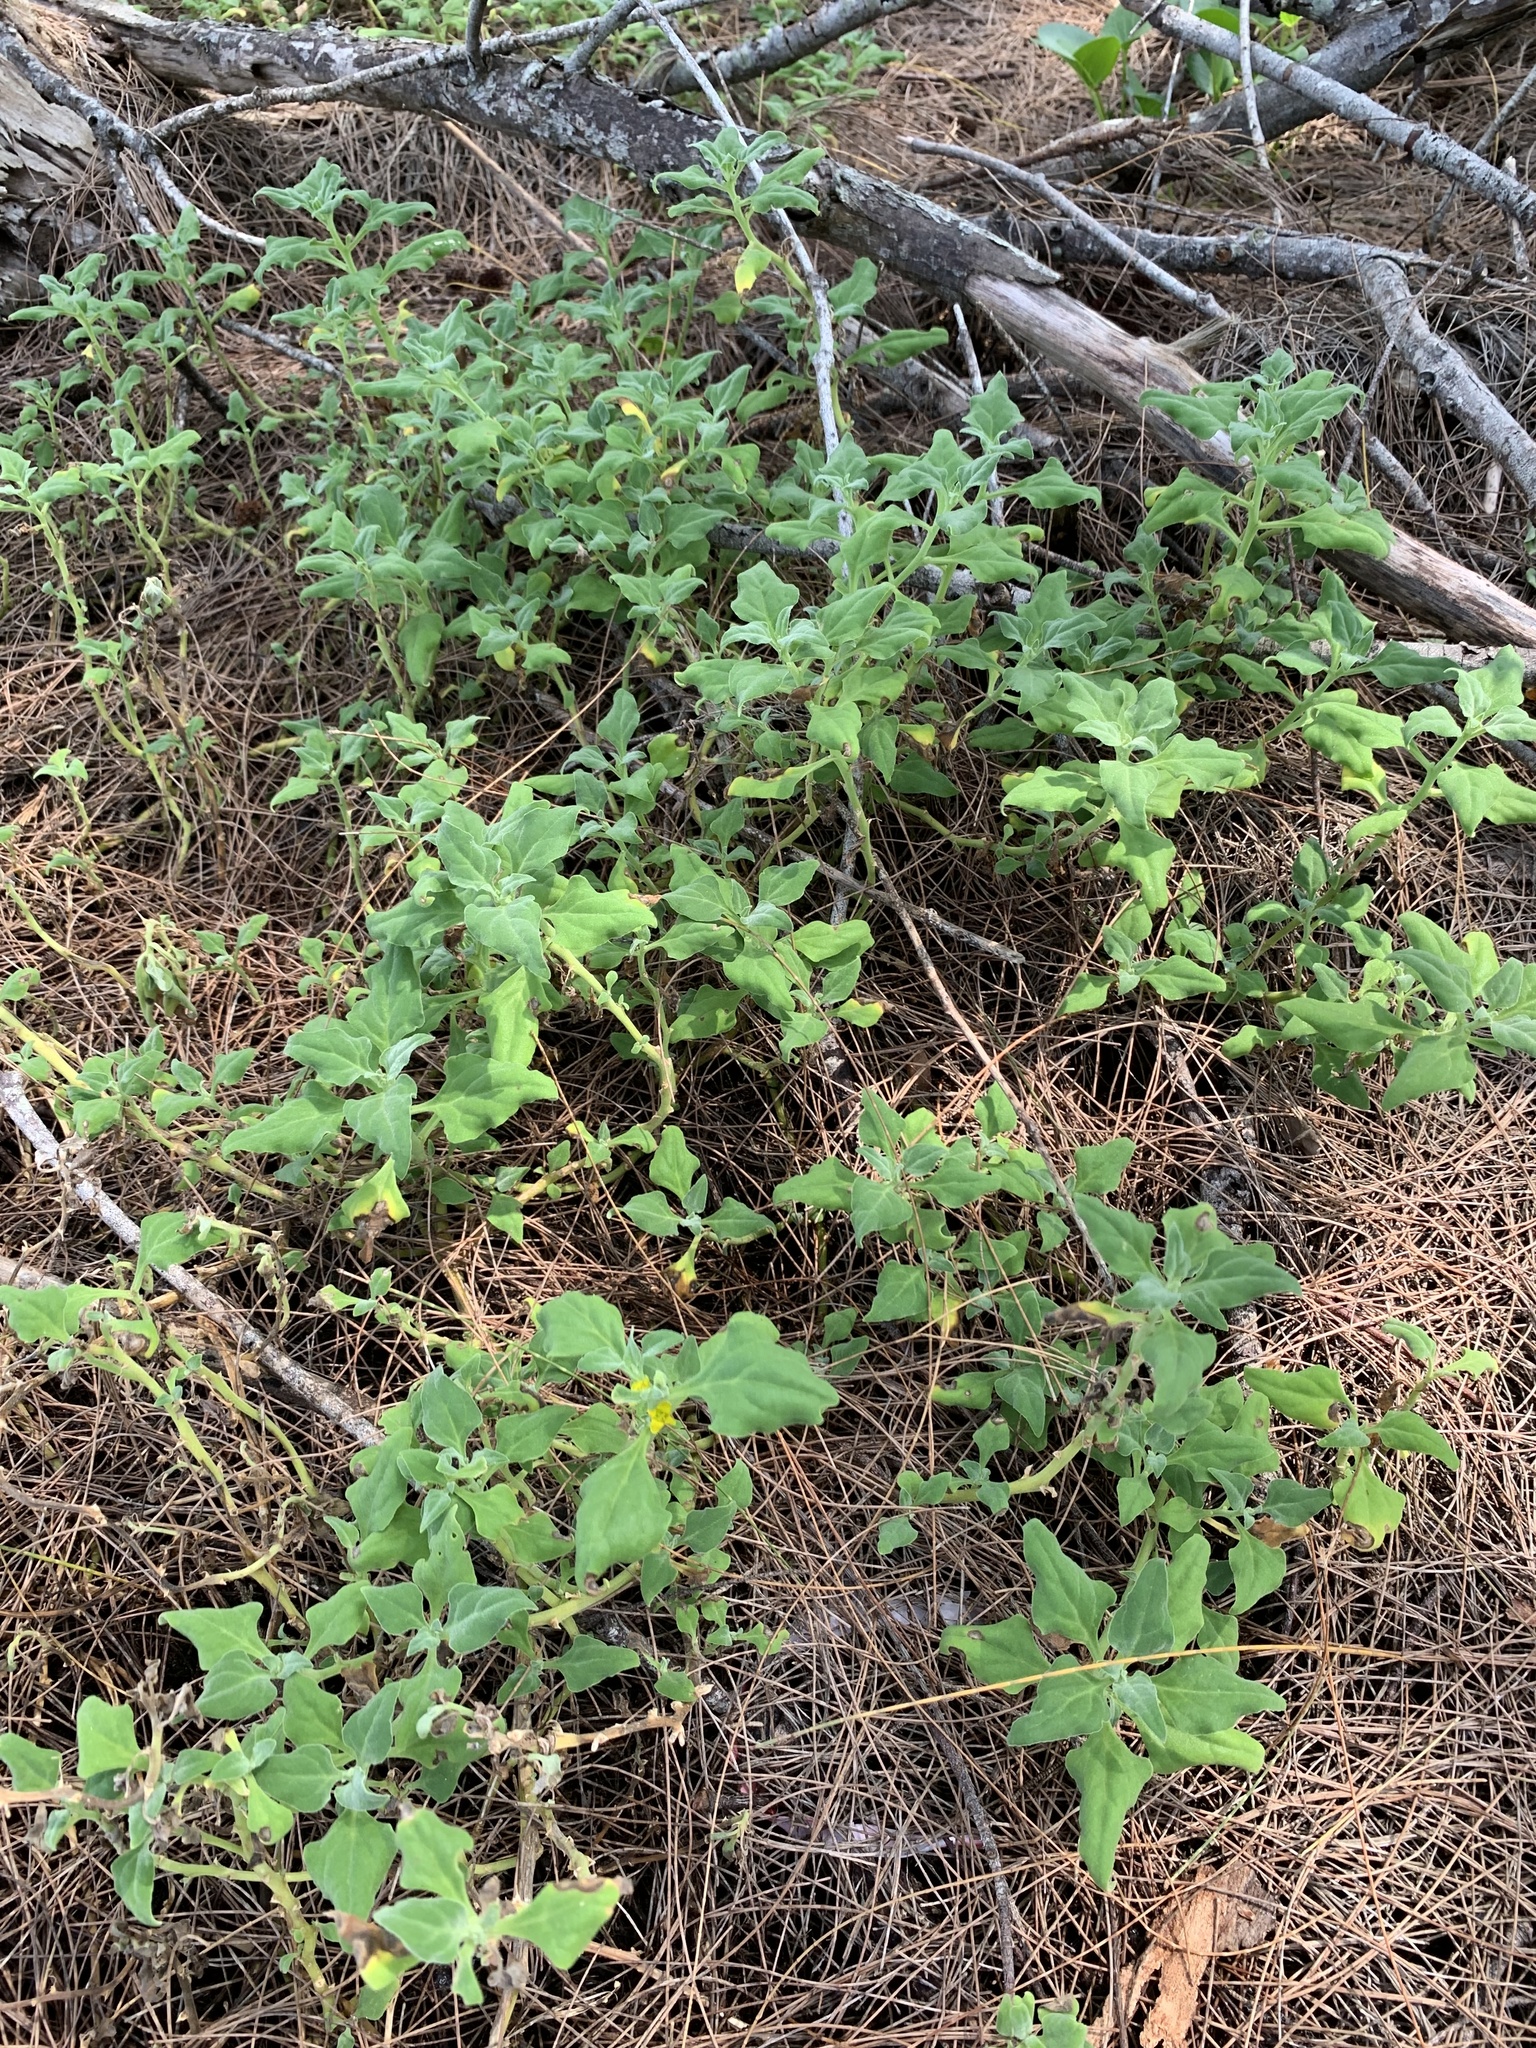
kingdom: Plantae
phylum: Tracheophyta
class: Magnoliopsida
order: Caryophyllales
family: Aizoaceae
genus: Tetragonia
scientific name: Tetragonia tetragonoides
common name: New zealand-spinach
